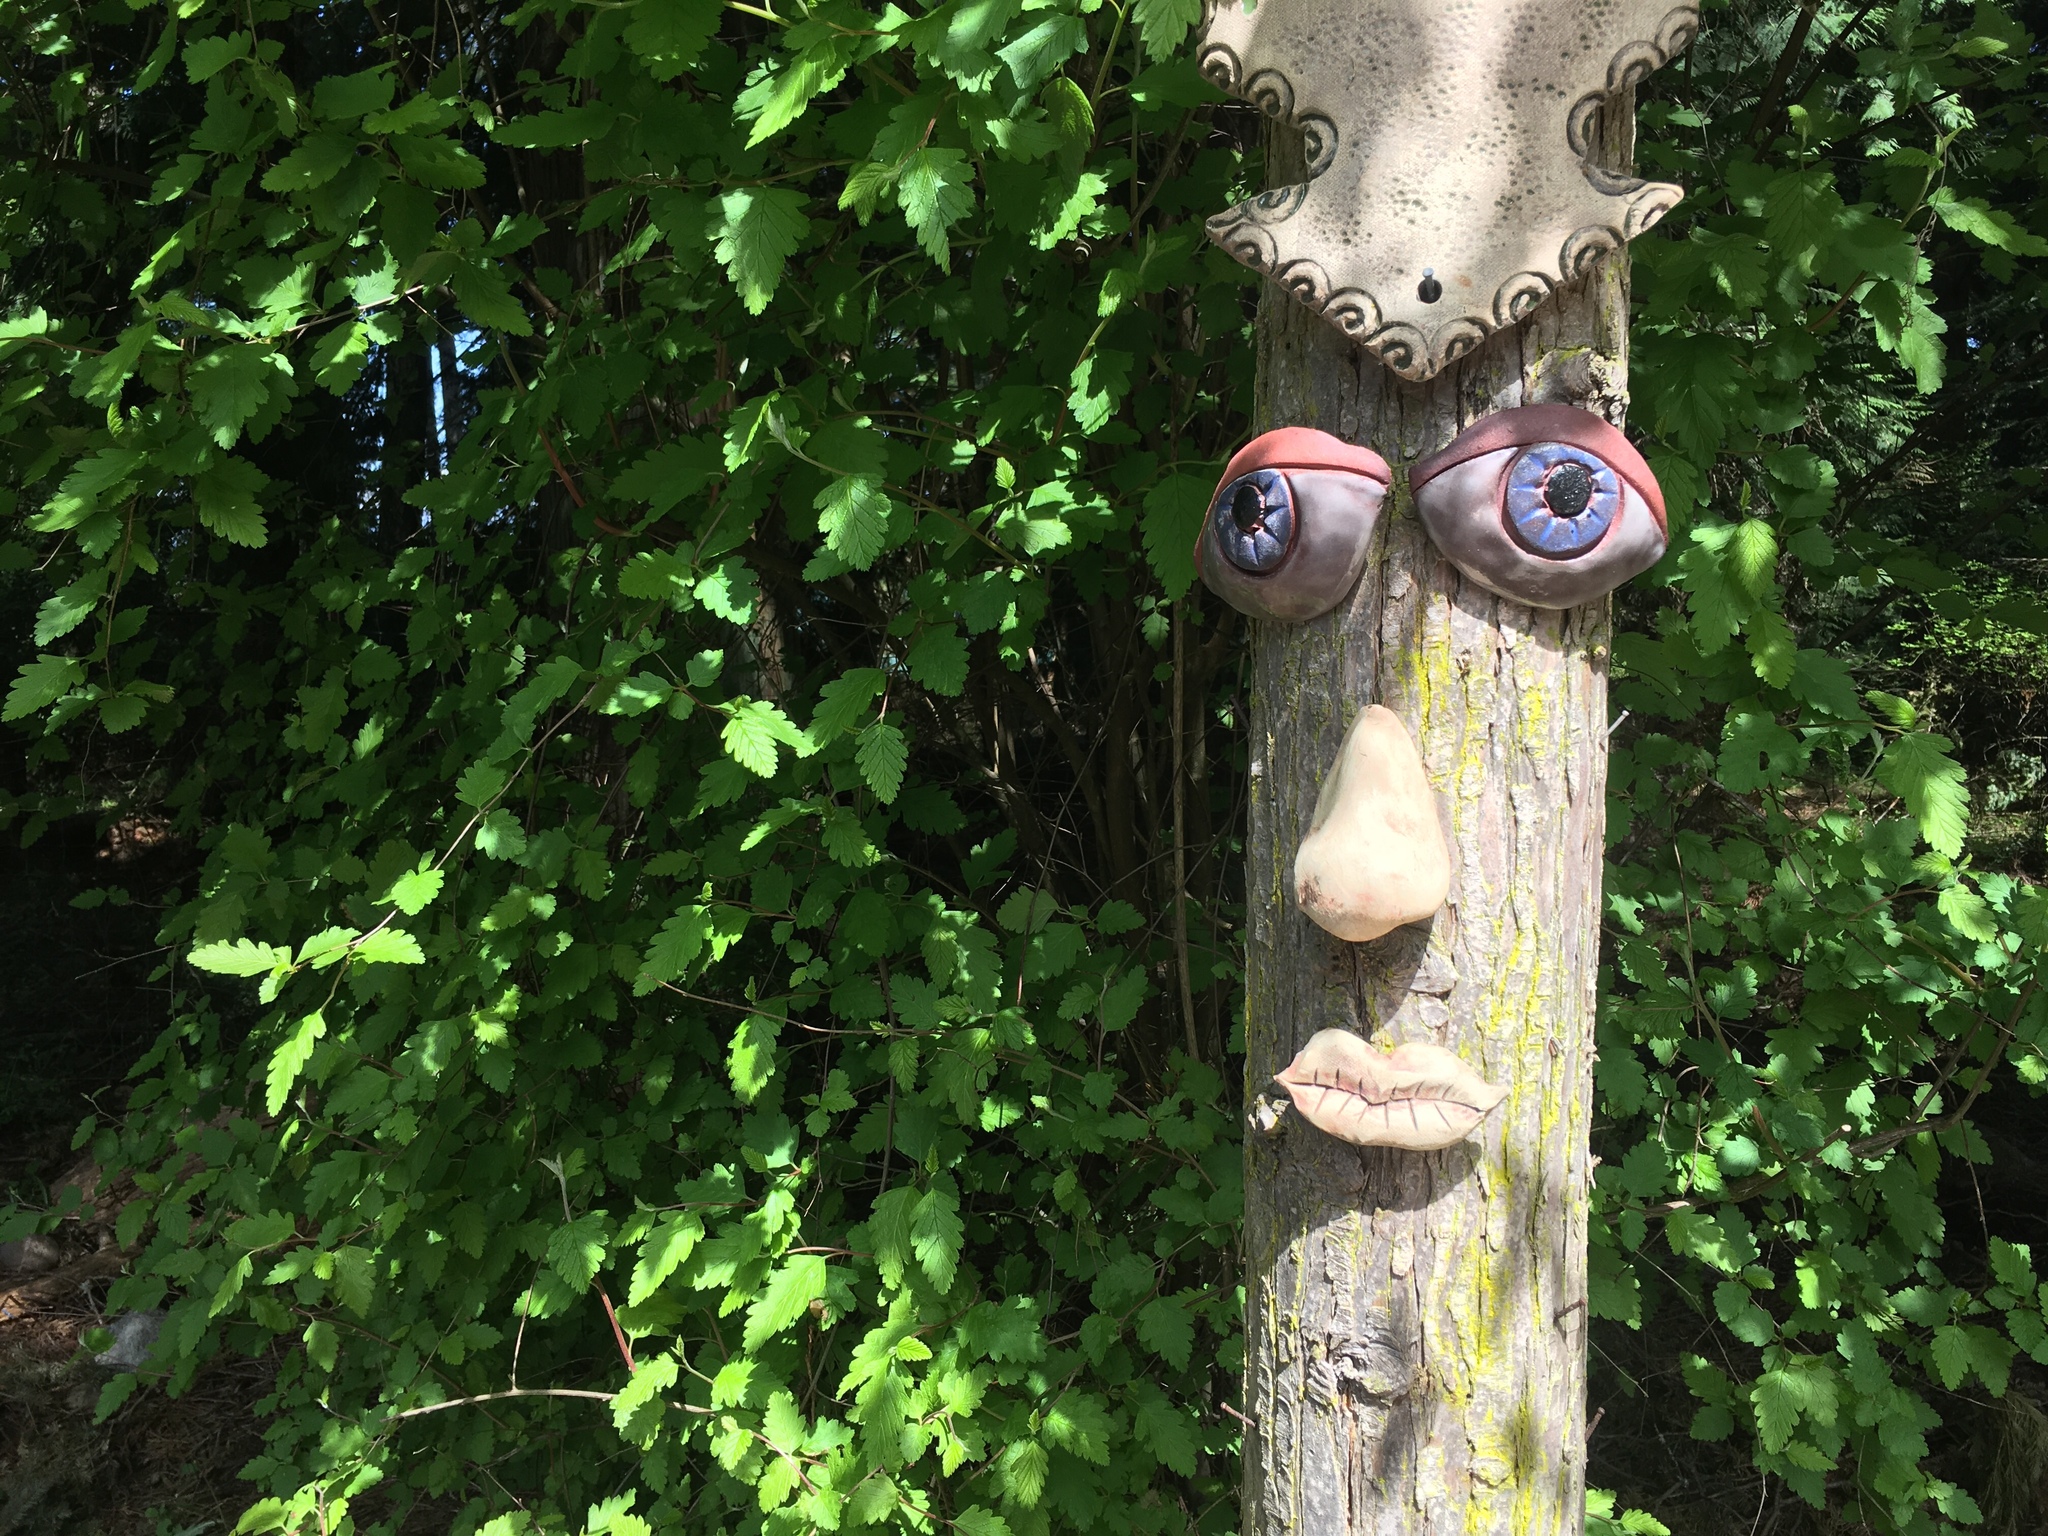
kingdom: Plantae
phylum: Tracheophyta
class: Magnoliopsida
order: Rosales
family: Rosaceae
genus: Holodiscus
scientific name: Holodiscus discolor
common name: Oceanspray
